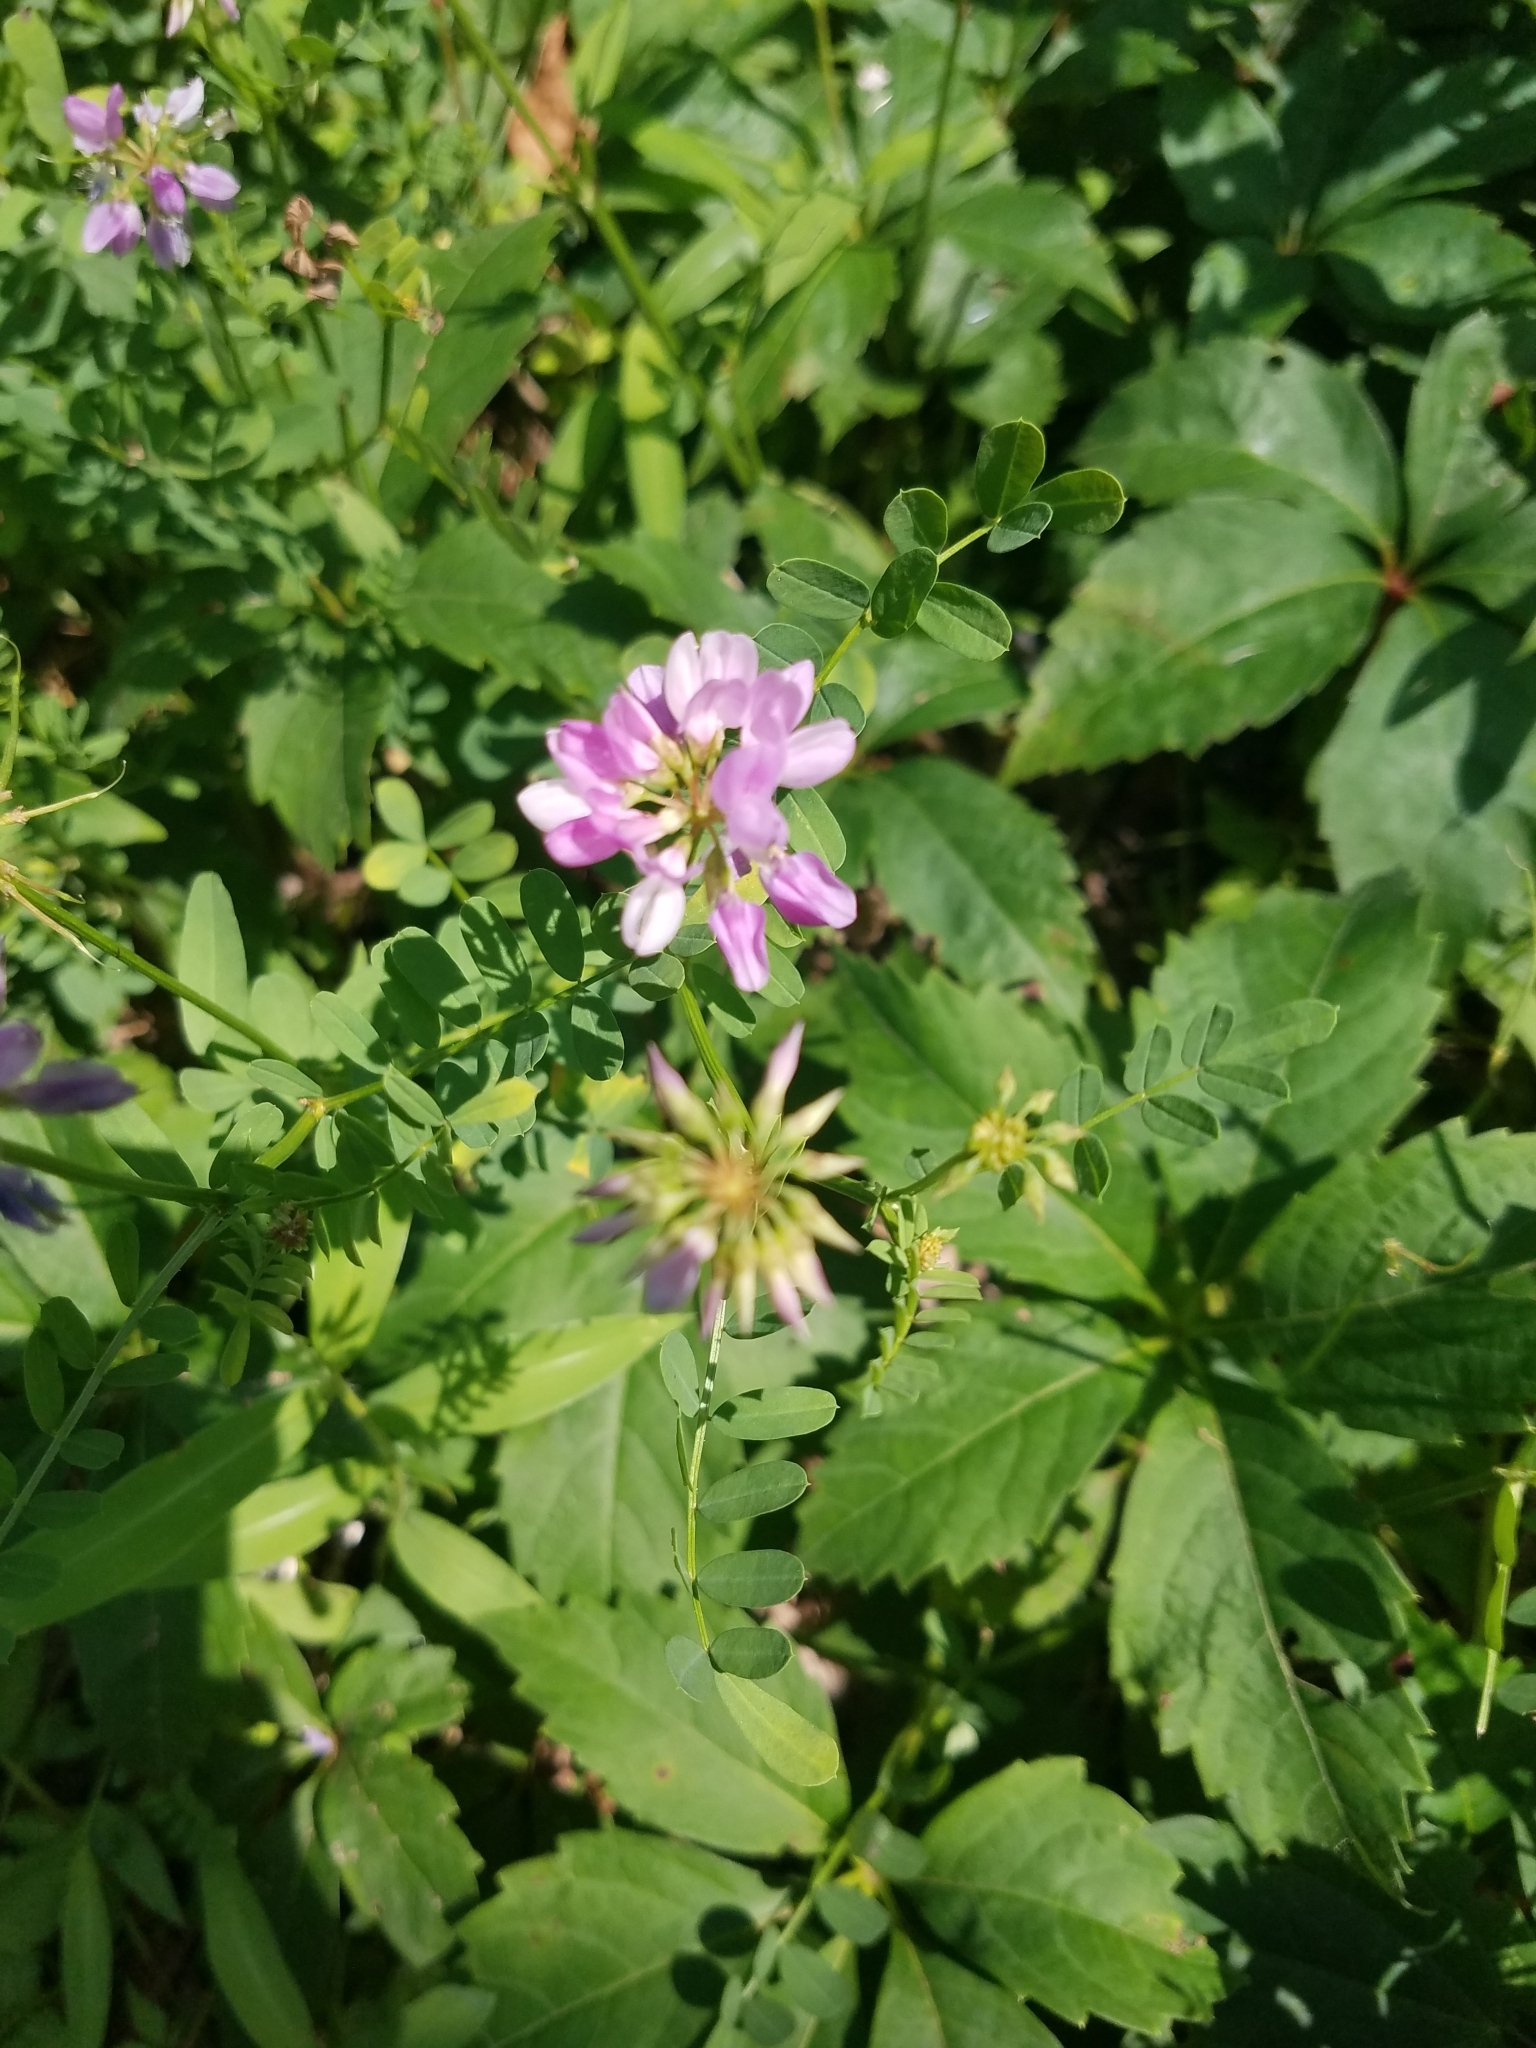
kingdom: Plantae
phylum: Tracheophyta
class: Magnoliopsida
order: Fabales
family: Fabaceae
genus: Coronilla
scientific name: Coronilla varia
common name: Crownvetch
